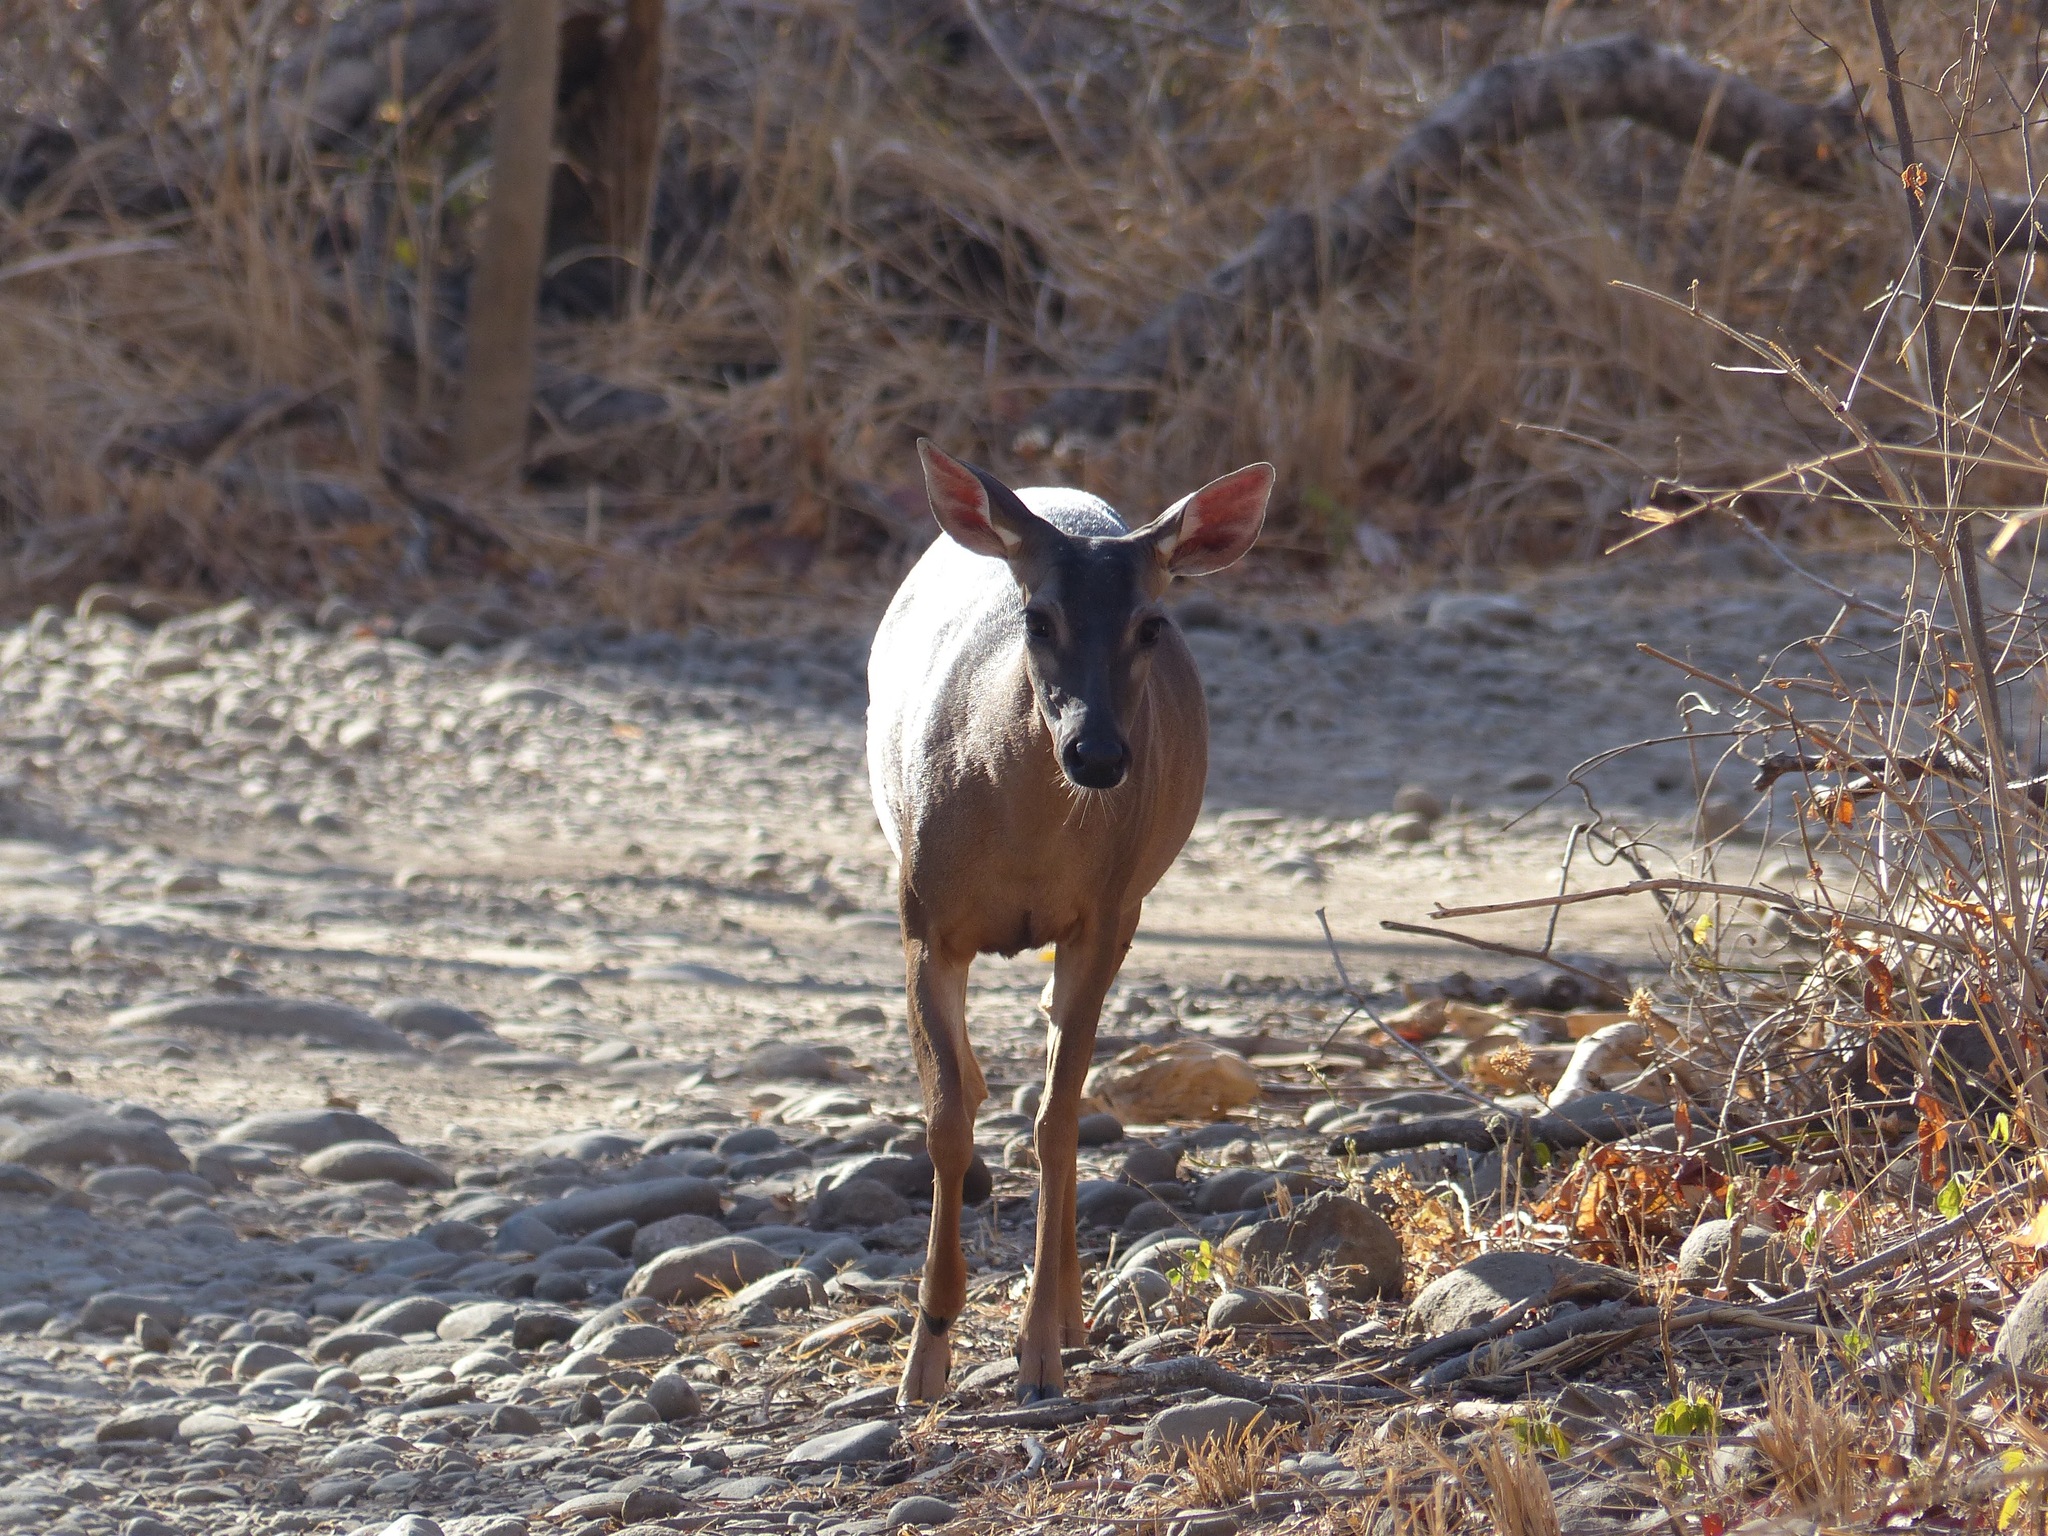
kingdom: Animalia
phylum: Chordata
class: Mammalia
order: Artiodactyla
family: Cervidae
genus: Odocoileus
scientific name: Odocoileus virginianus
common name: White-tailed deer
